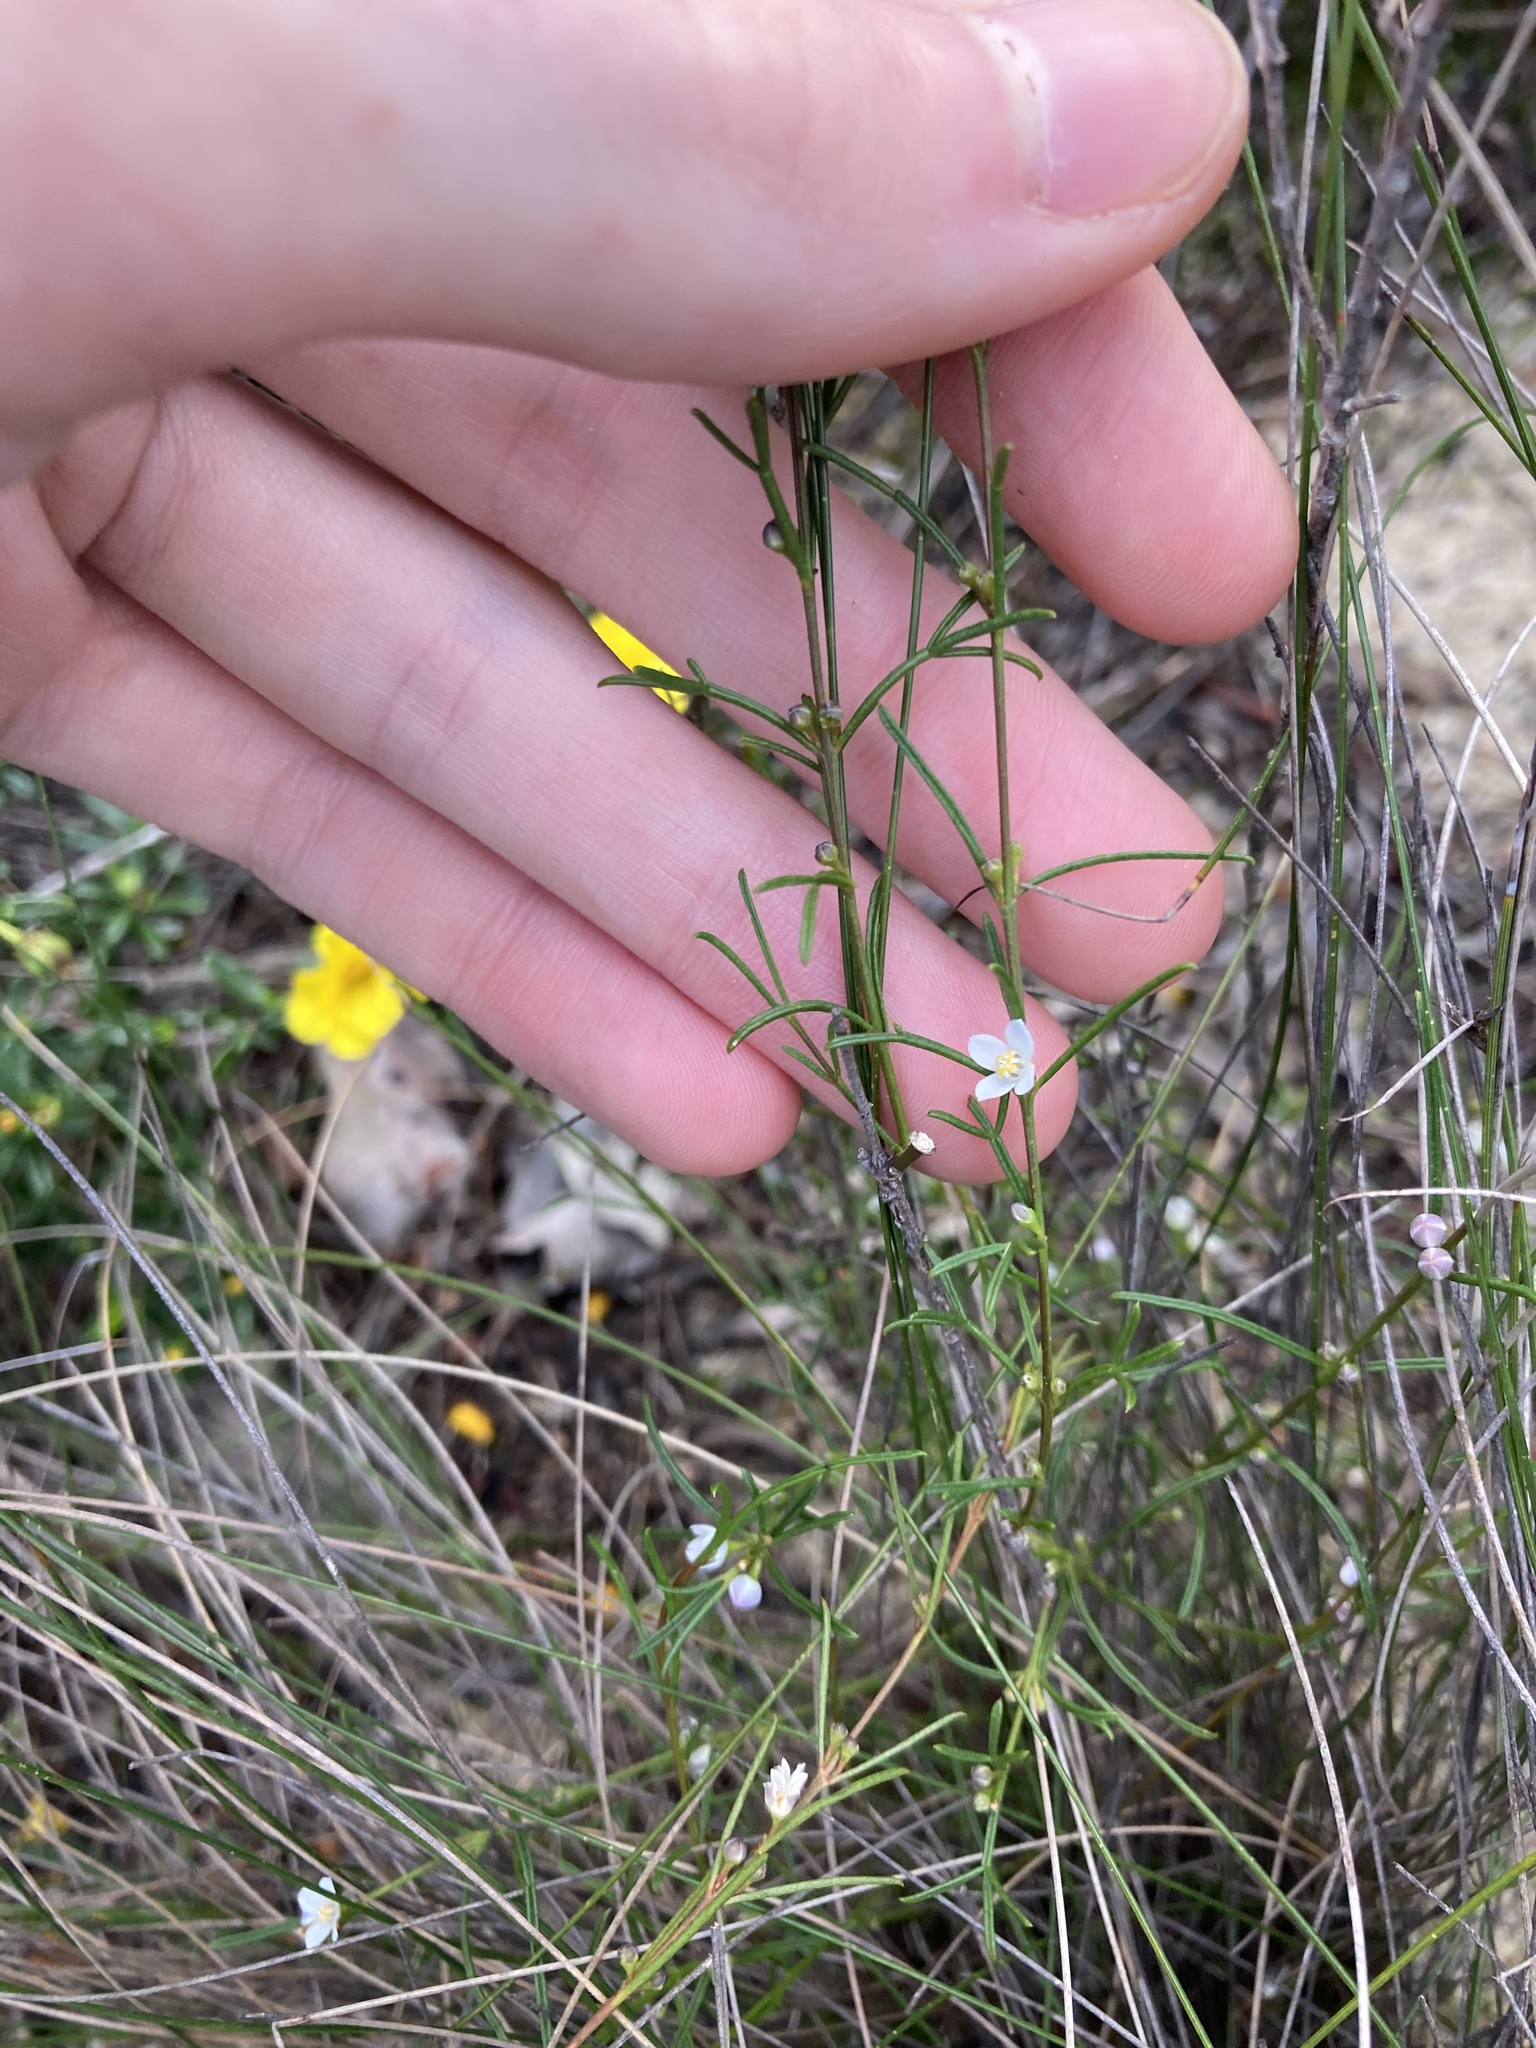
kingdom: Plantae
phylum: Tracheophyta
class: Magnoliopsida
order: Sapindales
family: Rutaceae
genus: Cyanothamnus
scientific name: Cyanothamnus ramosus
